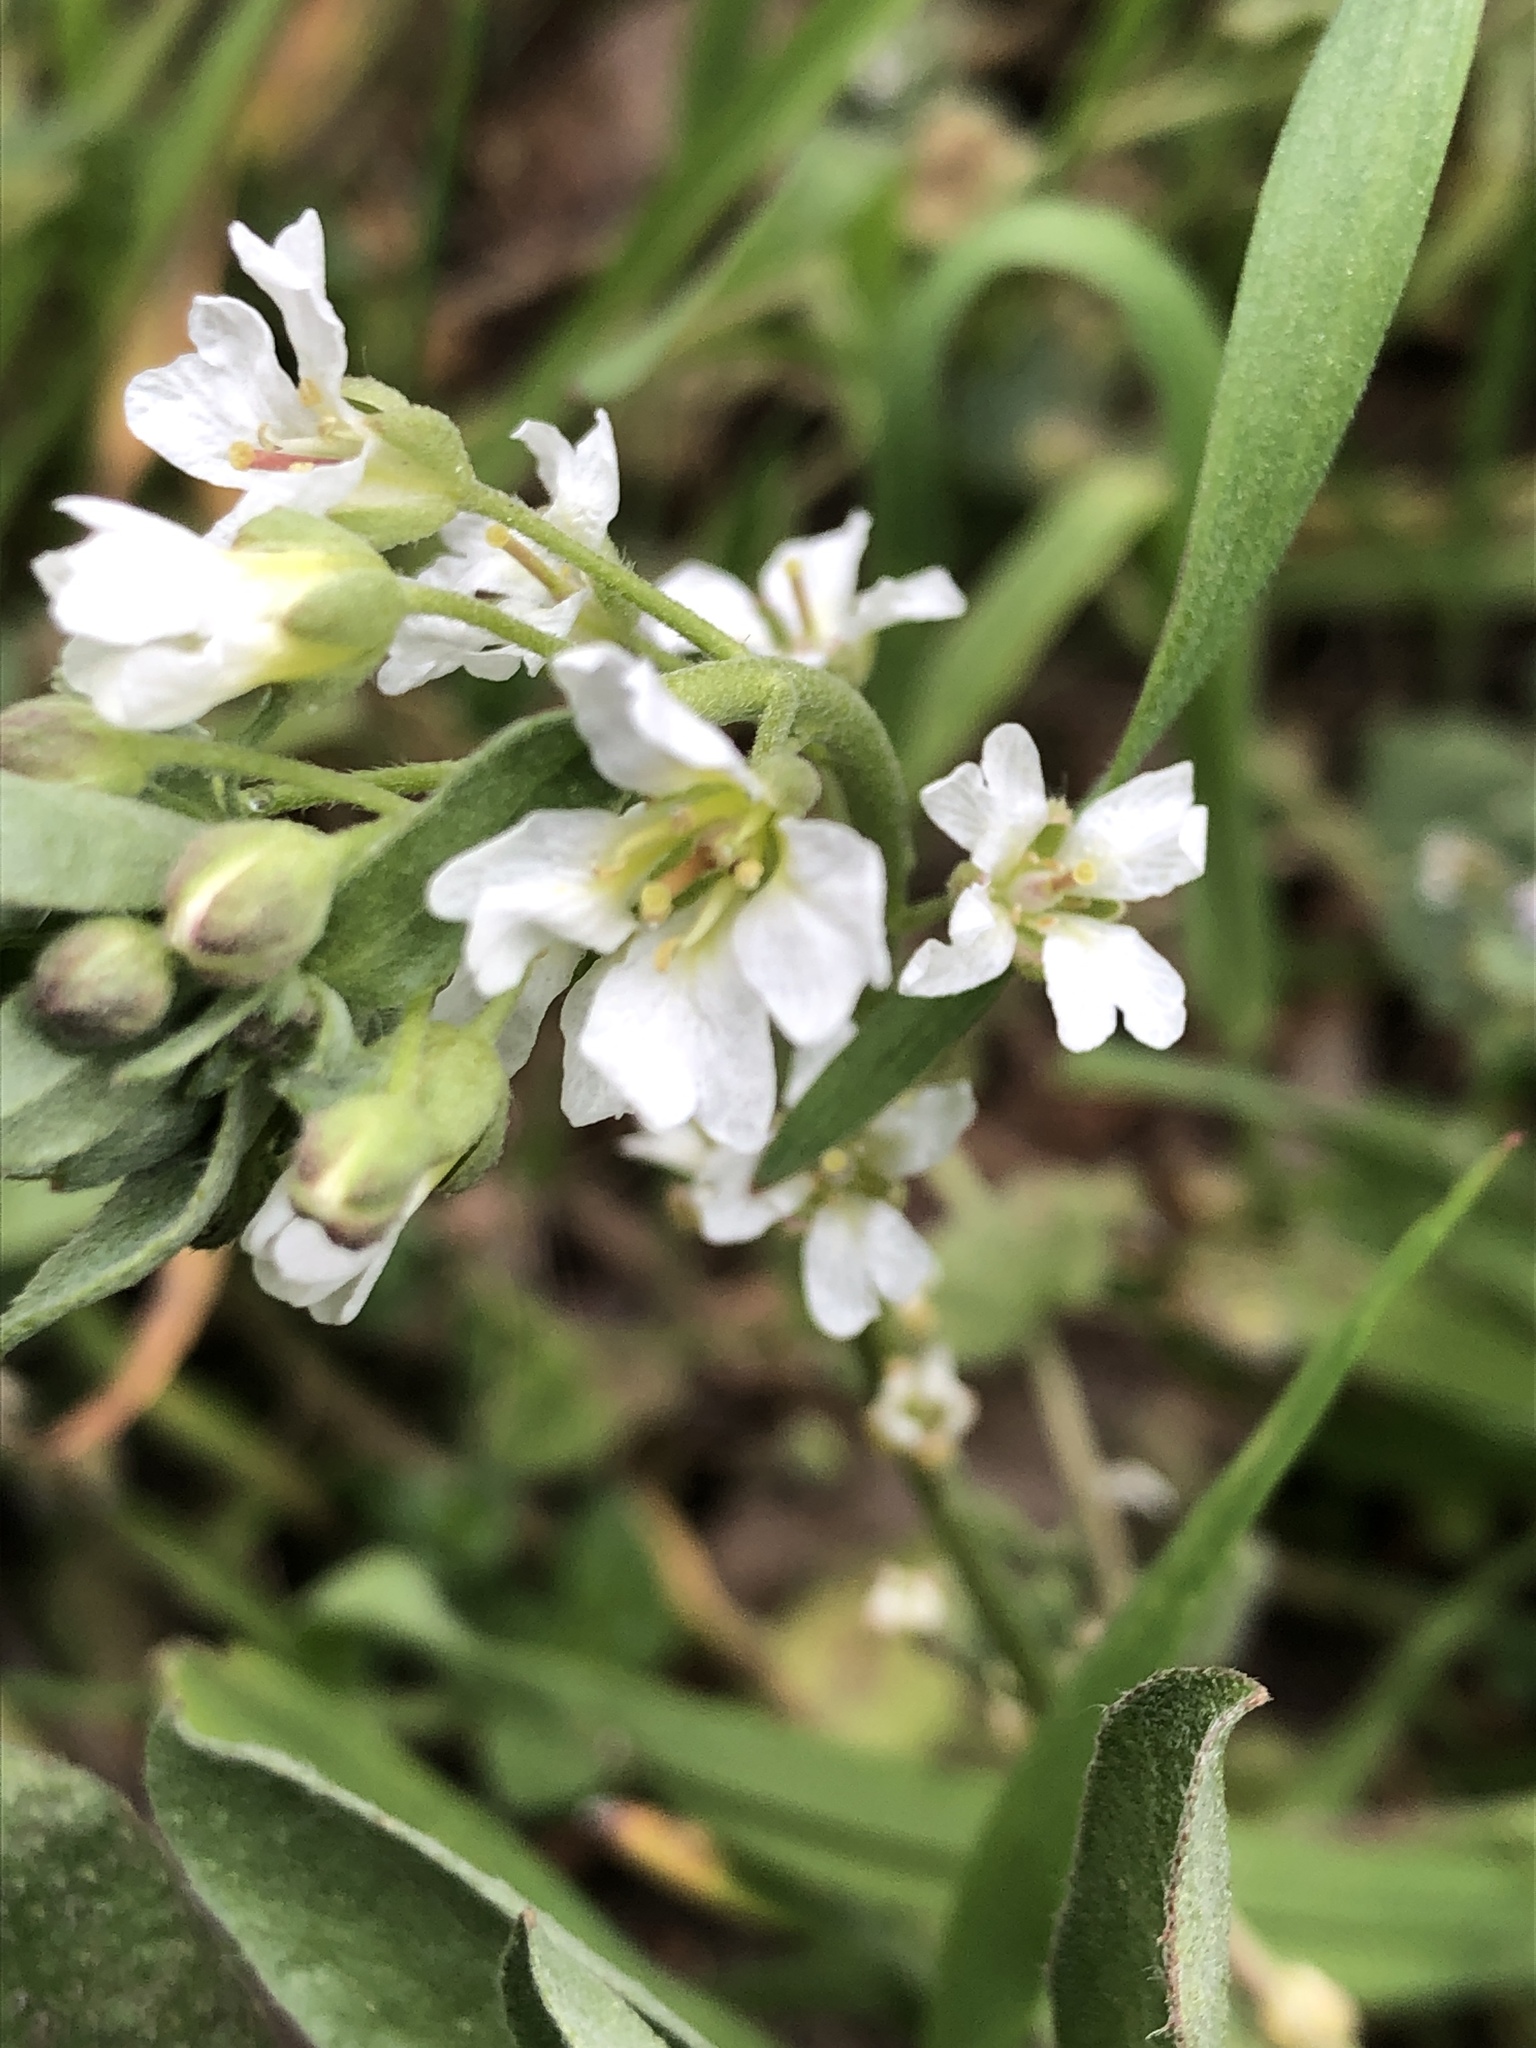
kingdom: Plantae
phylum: Tracheophyta
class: Magnoliopsida
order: Brassicales
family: Brassicaceae
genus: Berteroa
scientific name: Berteroa incana
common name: Hoary alison
